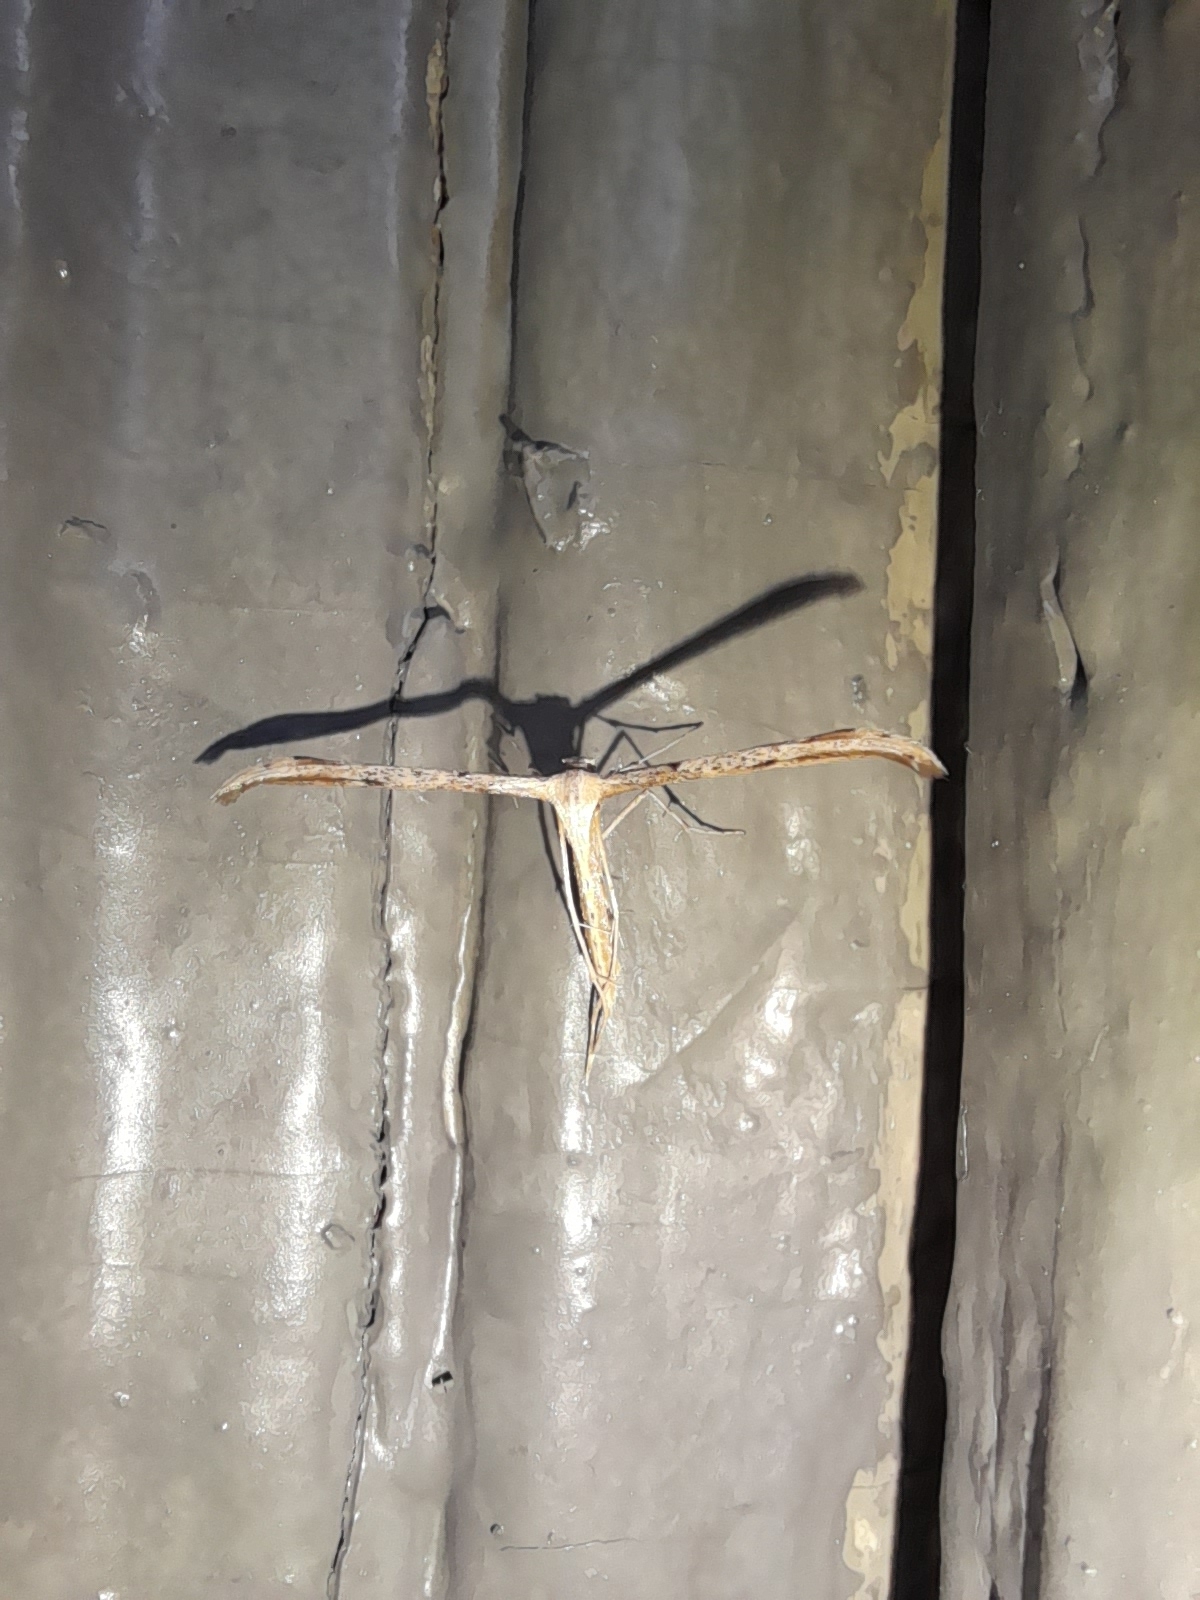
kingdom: Animalia
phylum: Arthropoda
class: Insecta
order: Lepidoptera
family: Pterophoridae
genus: Emmelina
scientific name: Emmelina monodactyla
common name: Common plume
